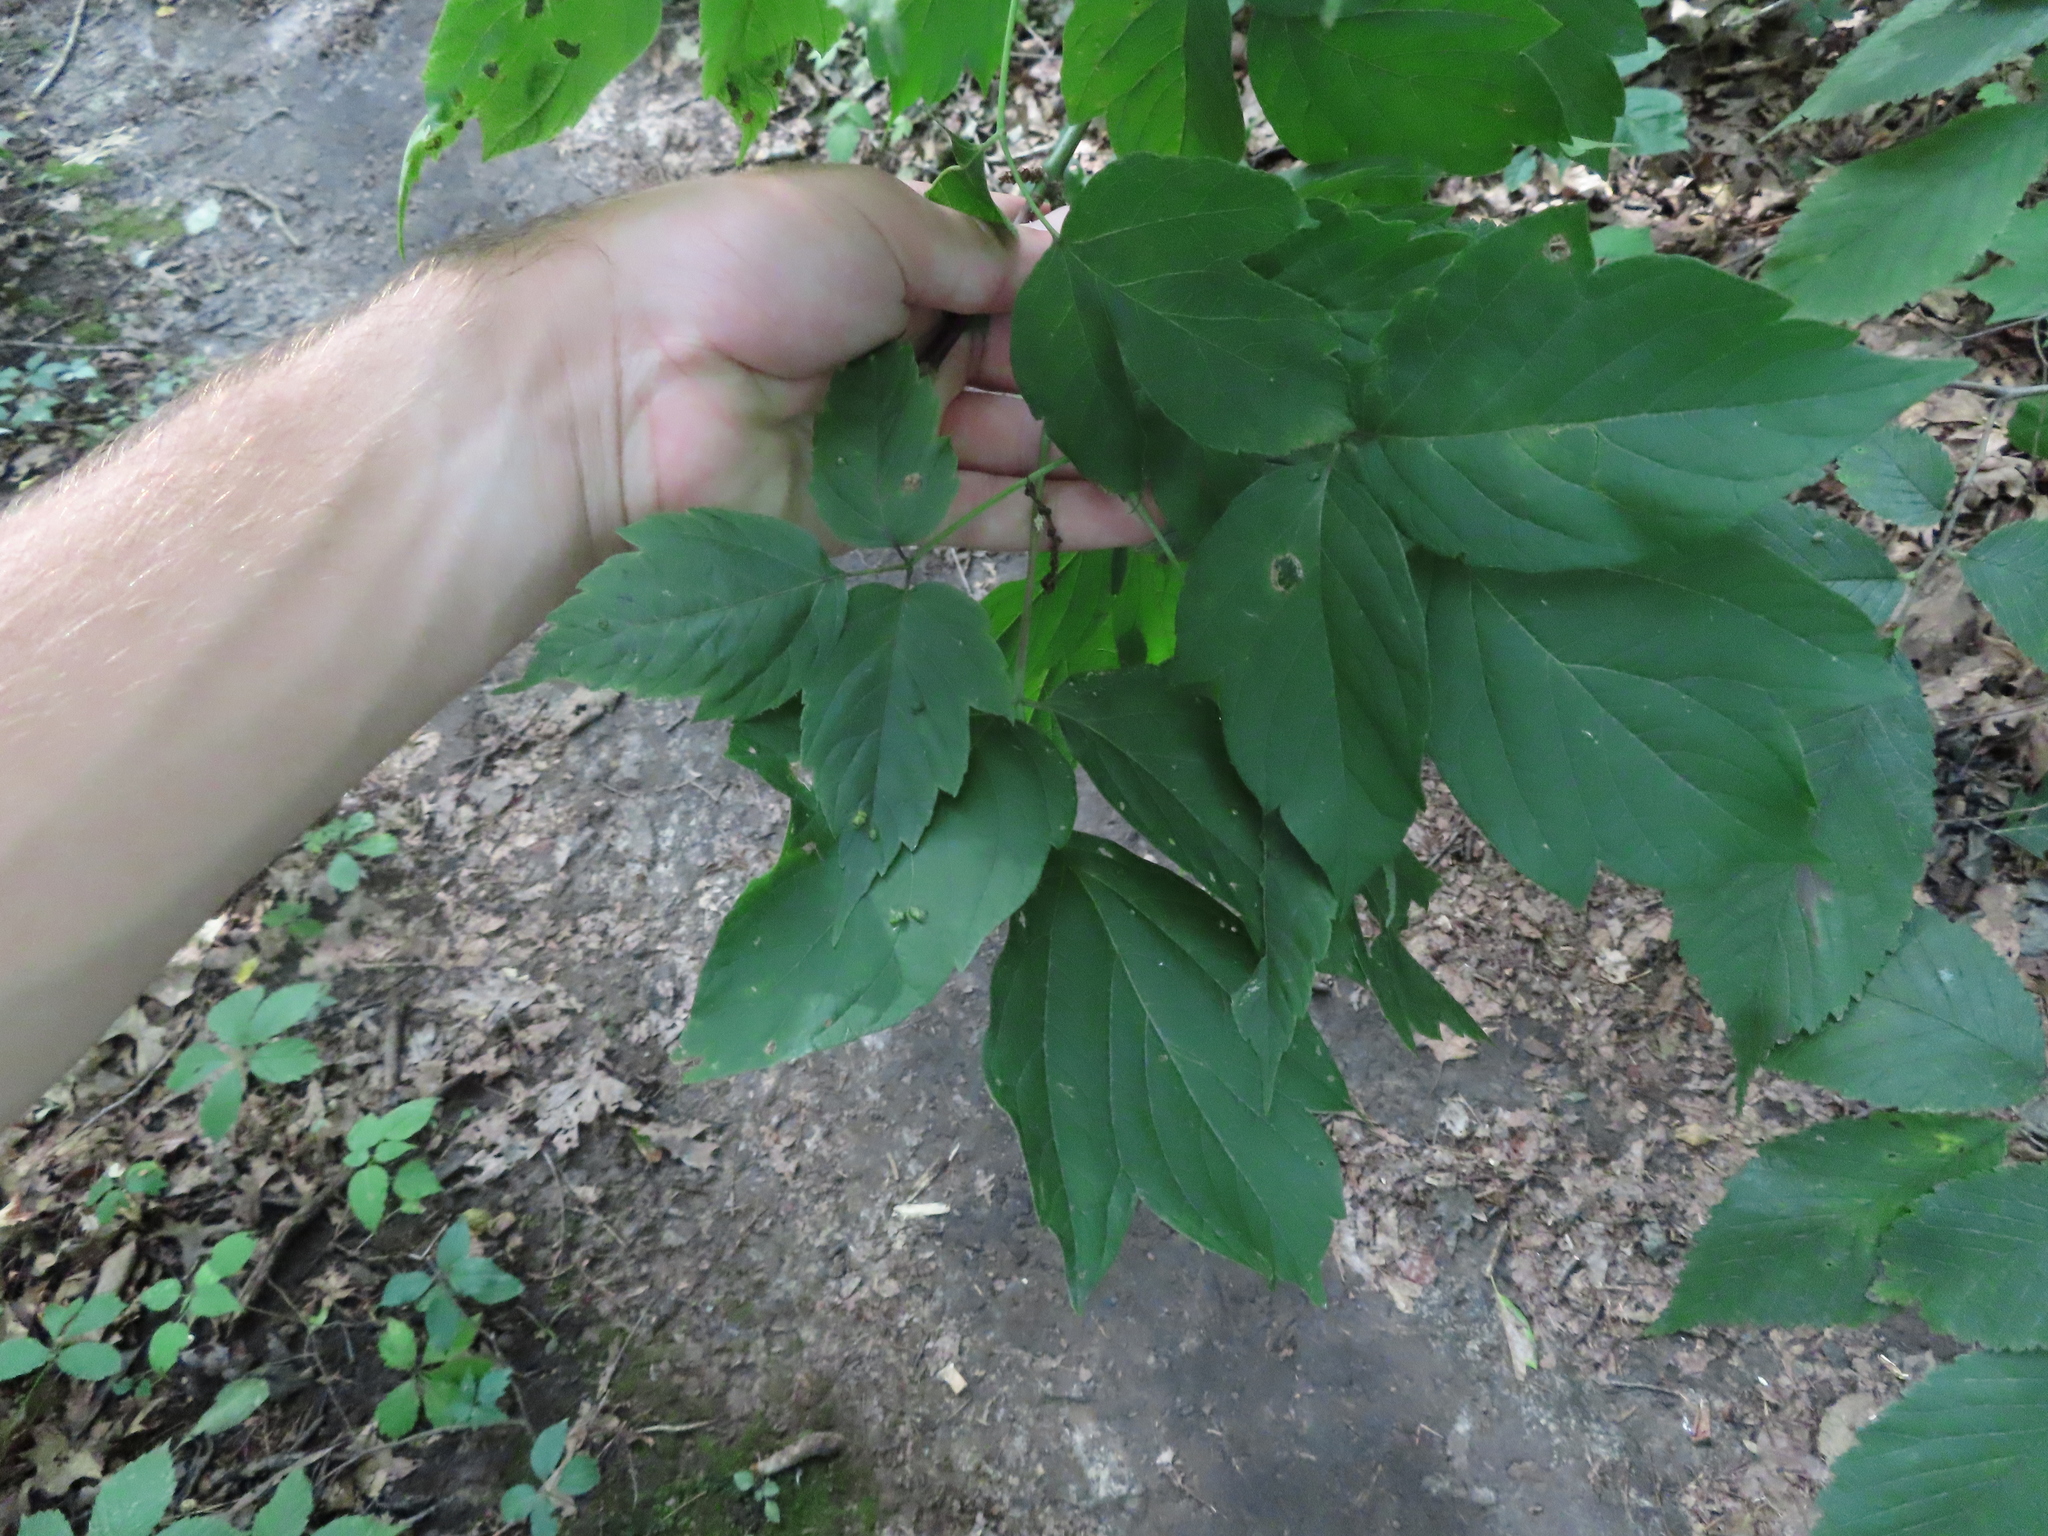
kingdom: Animalia
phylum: Arthropoda
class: Arachnida
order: Trombidiformes
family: Eriophyidae
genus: Aceria
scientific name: Aceria
